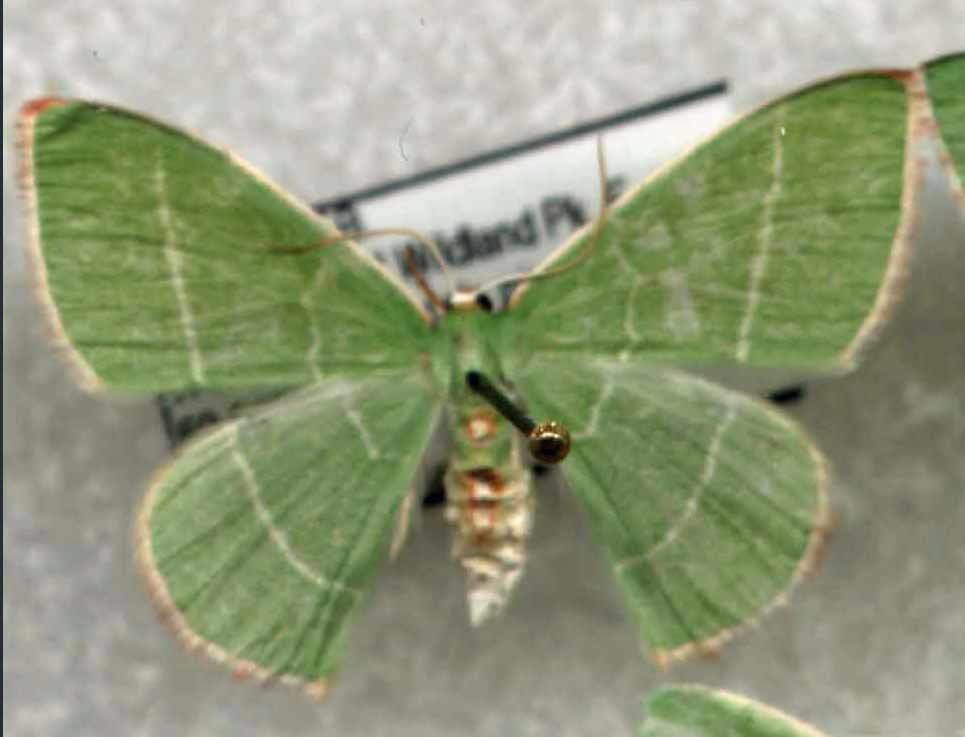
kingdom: Animalia
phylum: Arthropoda
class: Insecta
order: Lepidoptera
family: Geometridae
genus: Nemoria
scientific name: Nemoria rubrifrontaria
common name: Red-fronted emerald
